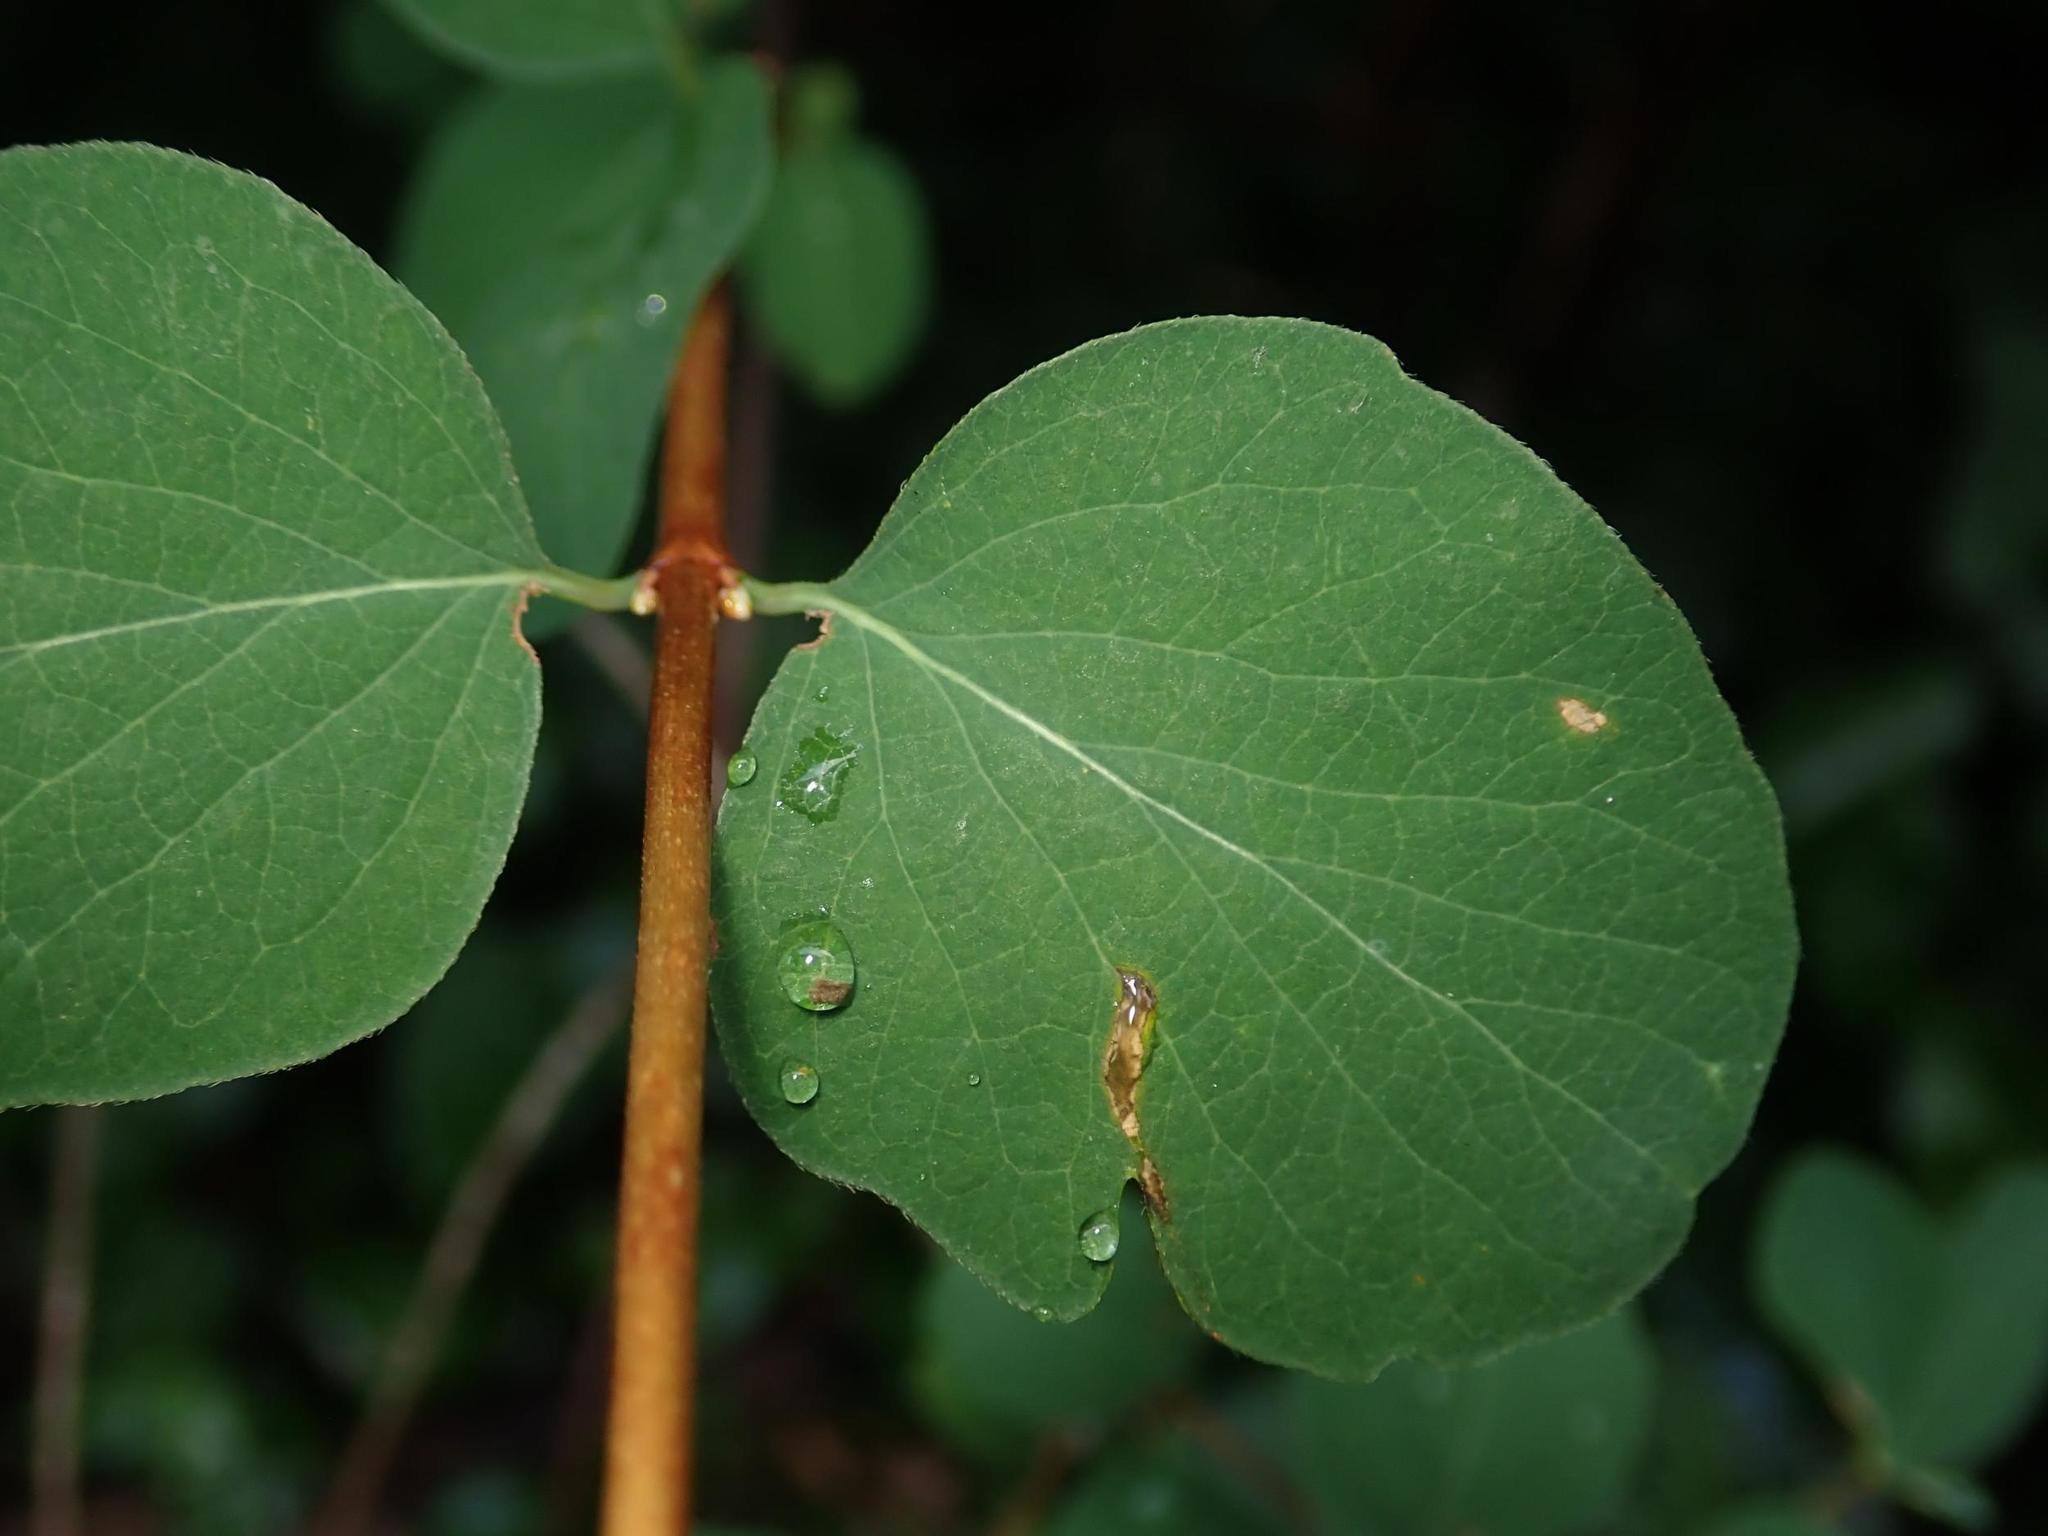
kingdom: Plantae
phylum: Tracheophyta
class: Magnoliopsida
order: Dipsacales
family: Caprifoliaceae
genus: Symphoricarpos
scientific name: Symphoricarpos albus
